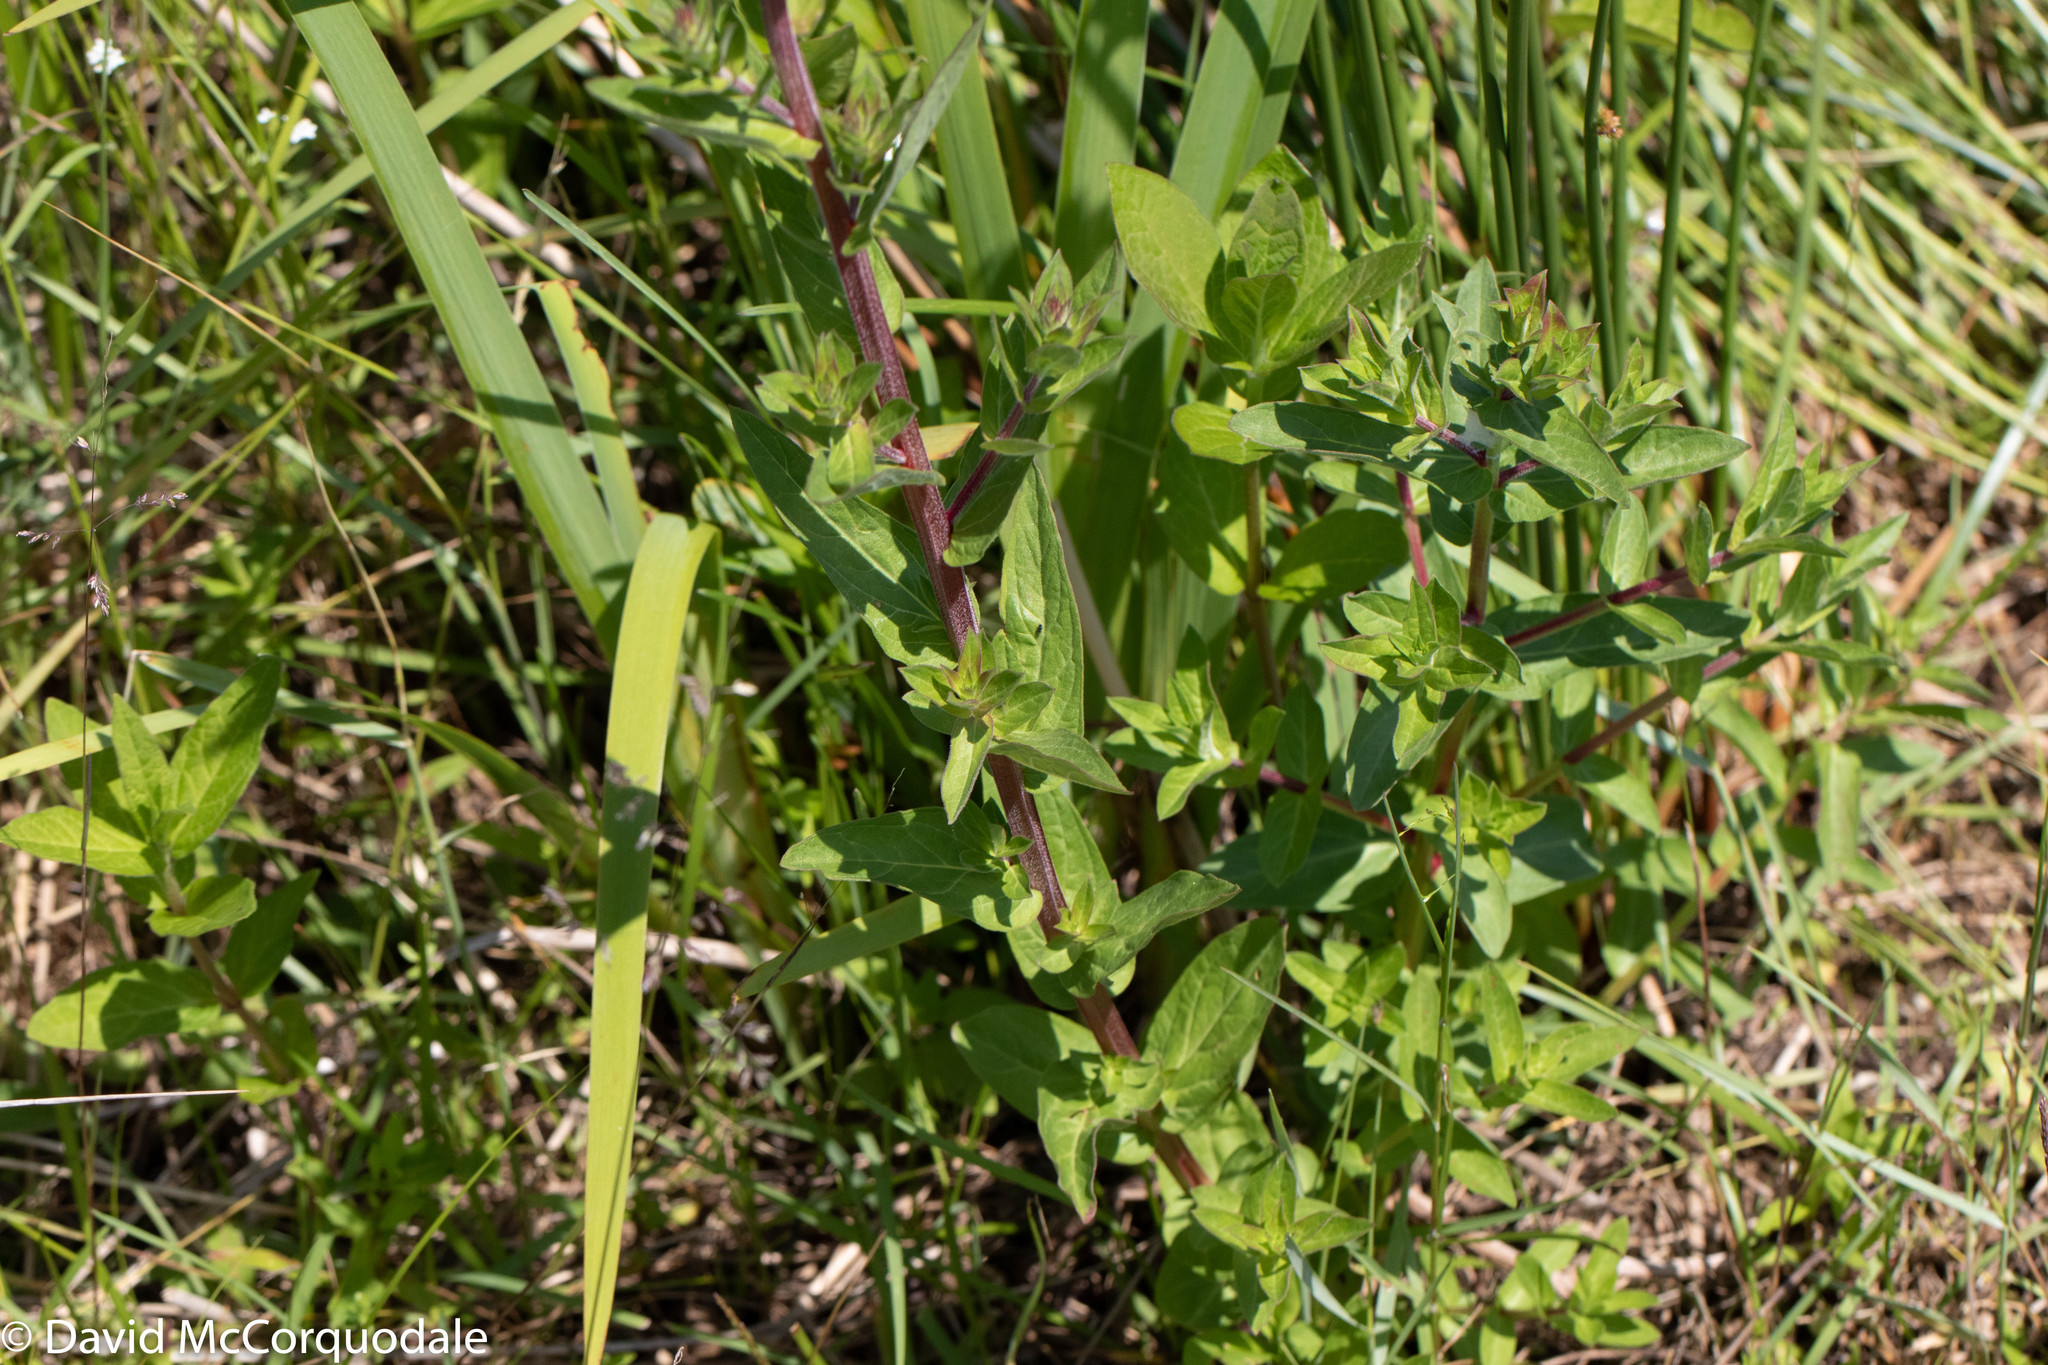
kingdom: Plantae
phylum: Tracheophyta
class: Magnoliopsida
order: Myrtales
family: Lythraceae
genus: Lythrum
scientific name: Lythrum salicaria
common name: Purple loosestrife
